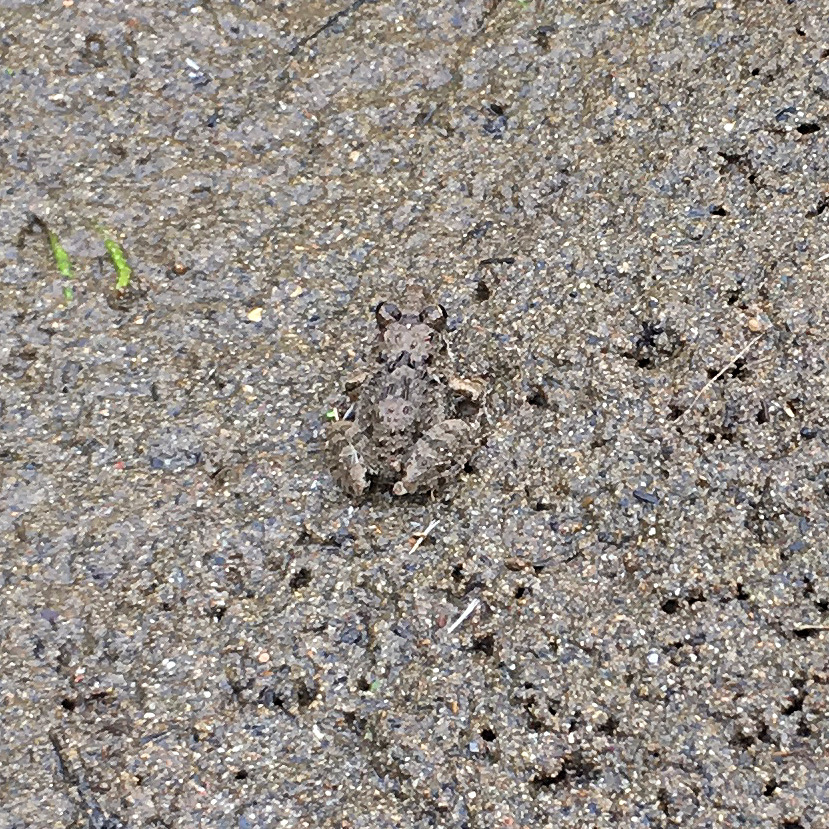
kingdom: Animalia
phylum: Chordata
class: Amphibia
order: Anura
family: Ranidae
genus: Glandirana
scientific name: Glandirana rugosa
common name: Japanese wrinkled frog
